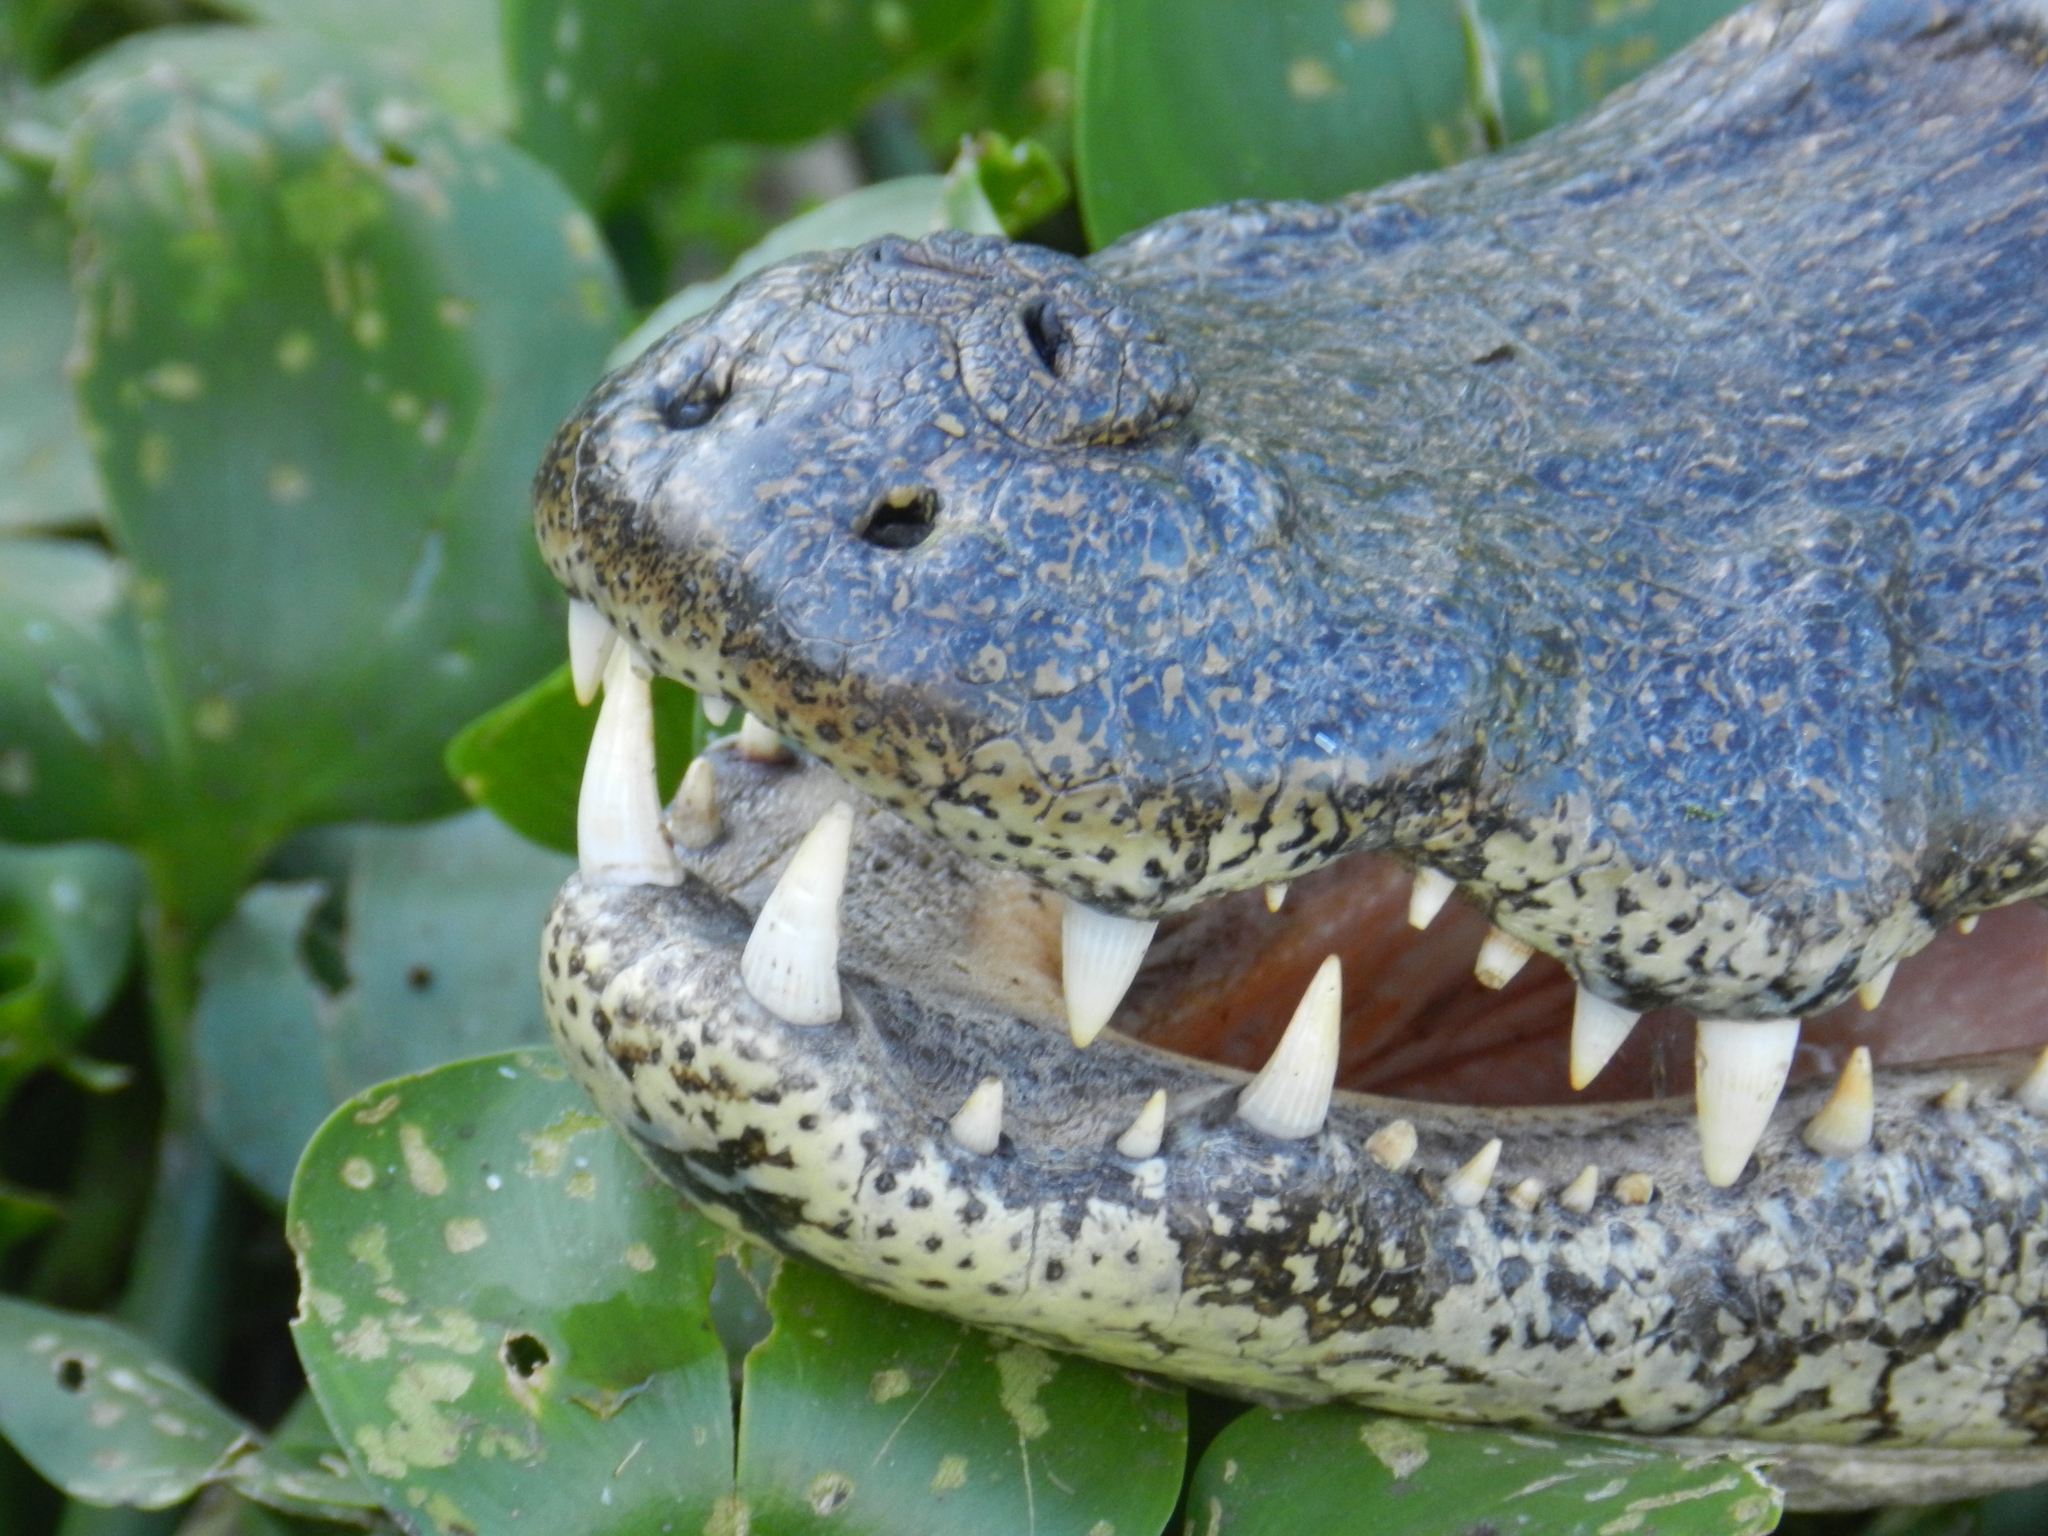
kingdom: Animalia
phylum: Chordata
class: Crocodylia
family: Alligatoridae
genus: Caiman
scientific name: Caiman yacare
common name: Yacare caiman
